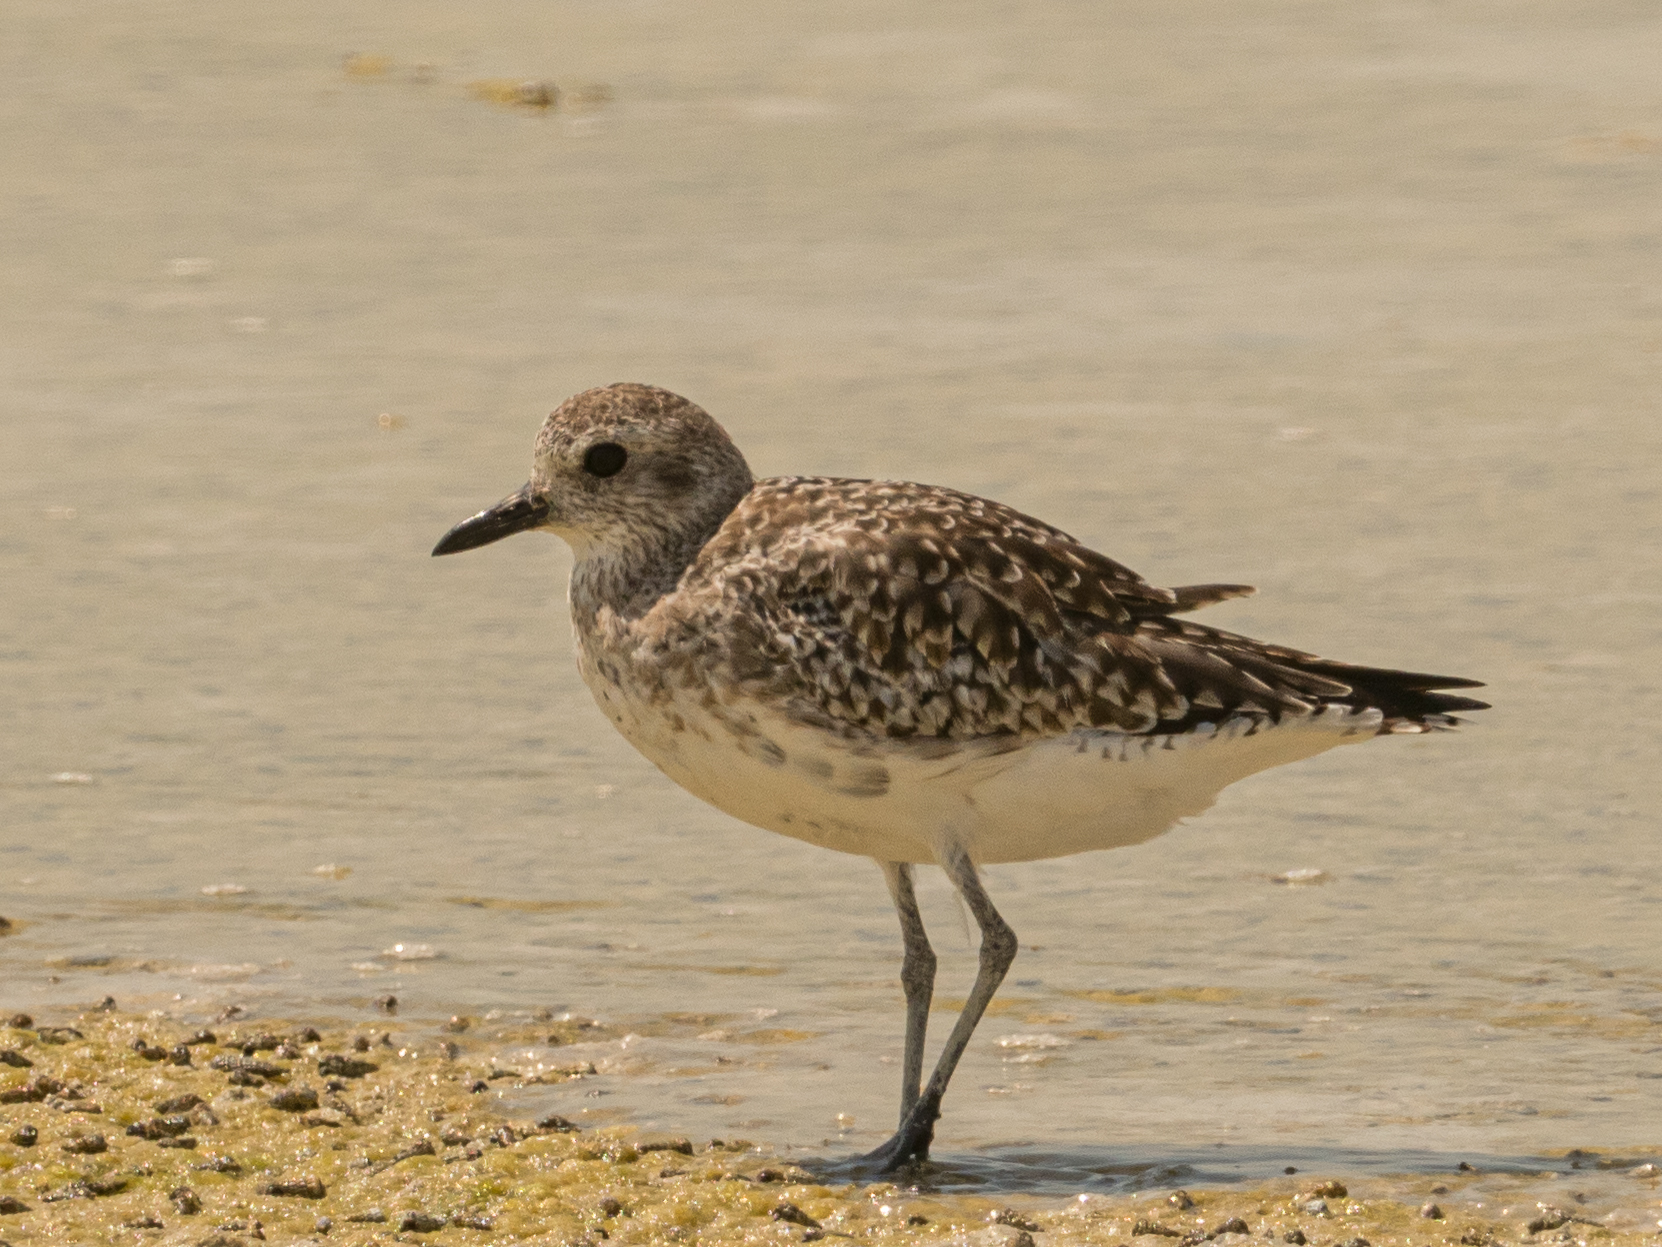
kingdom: Animalia
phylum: Chordata
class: Aves
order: Charadriiformes
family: Charadriidae
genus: Pluvialis
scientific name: Pluvialis squatarola
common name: Grey plover
